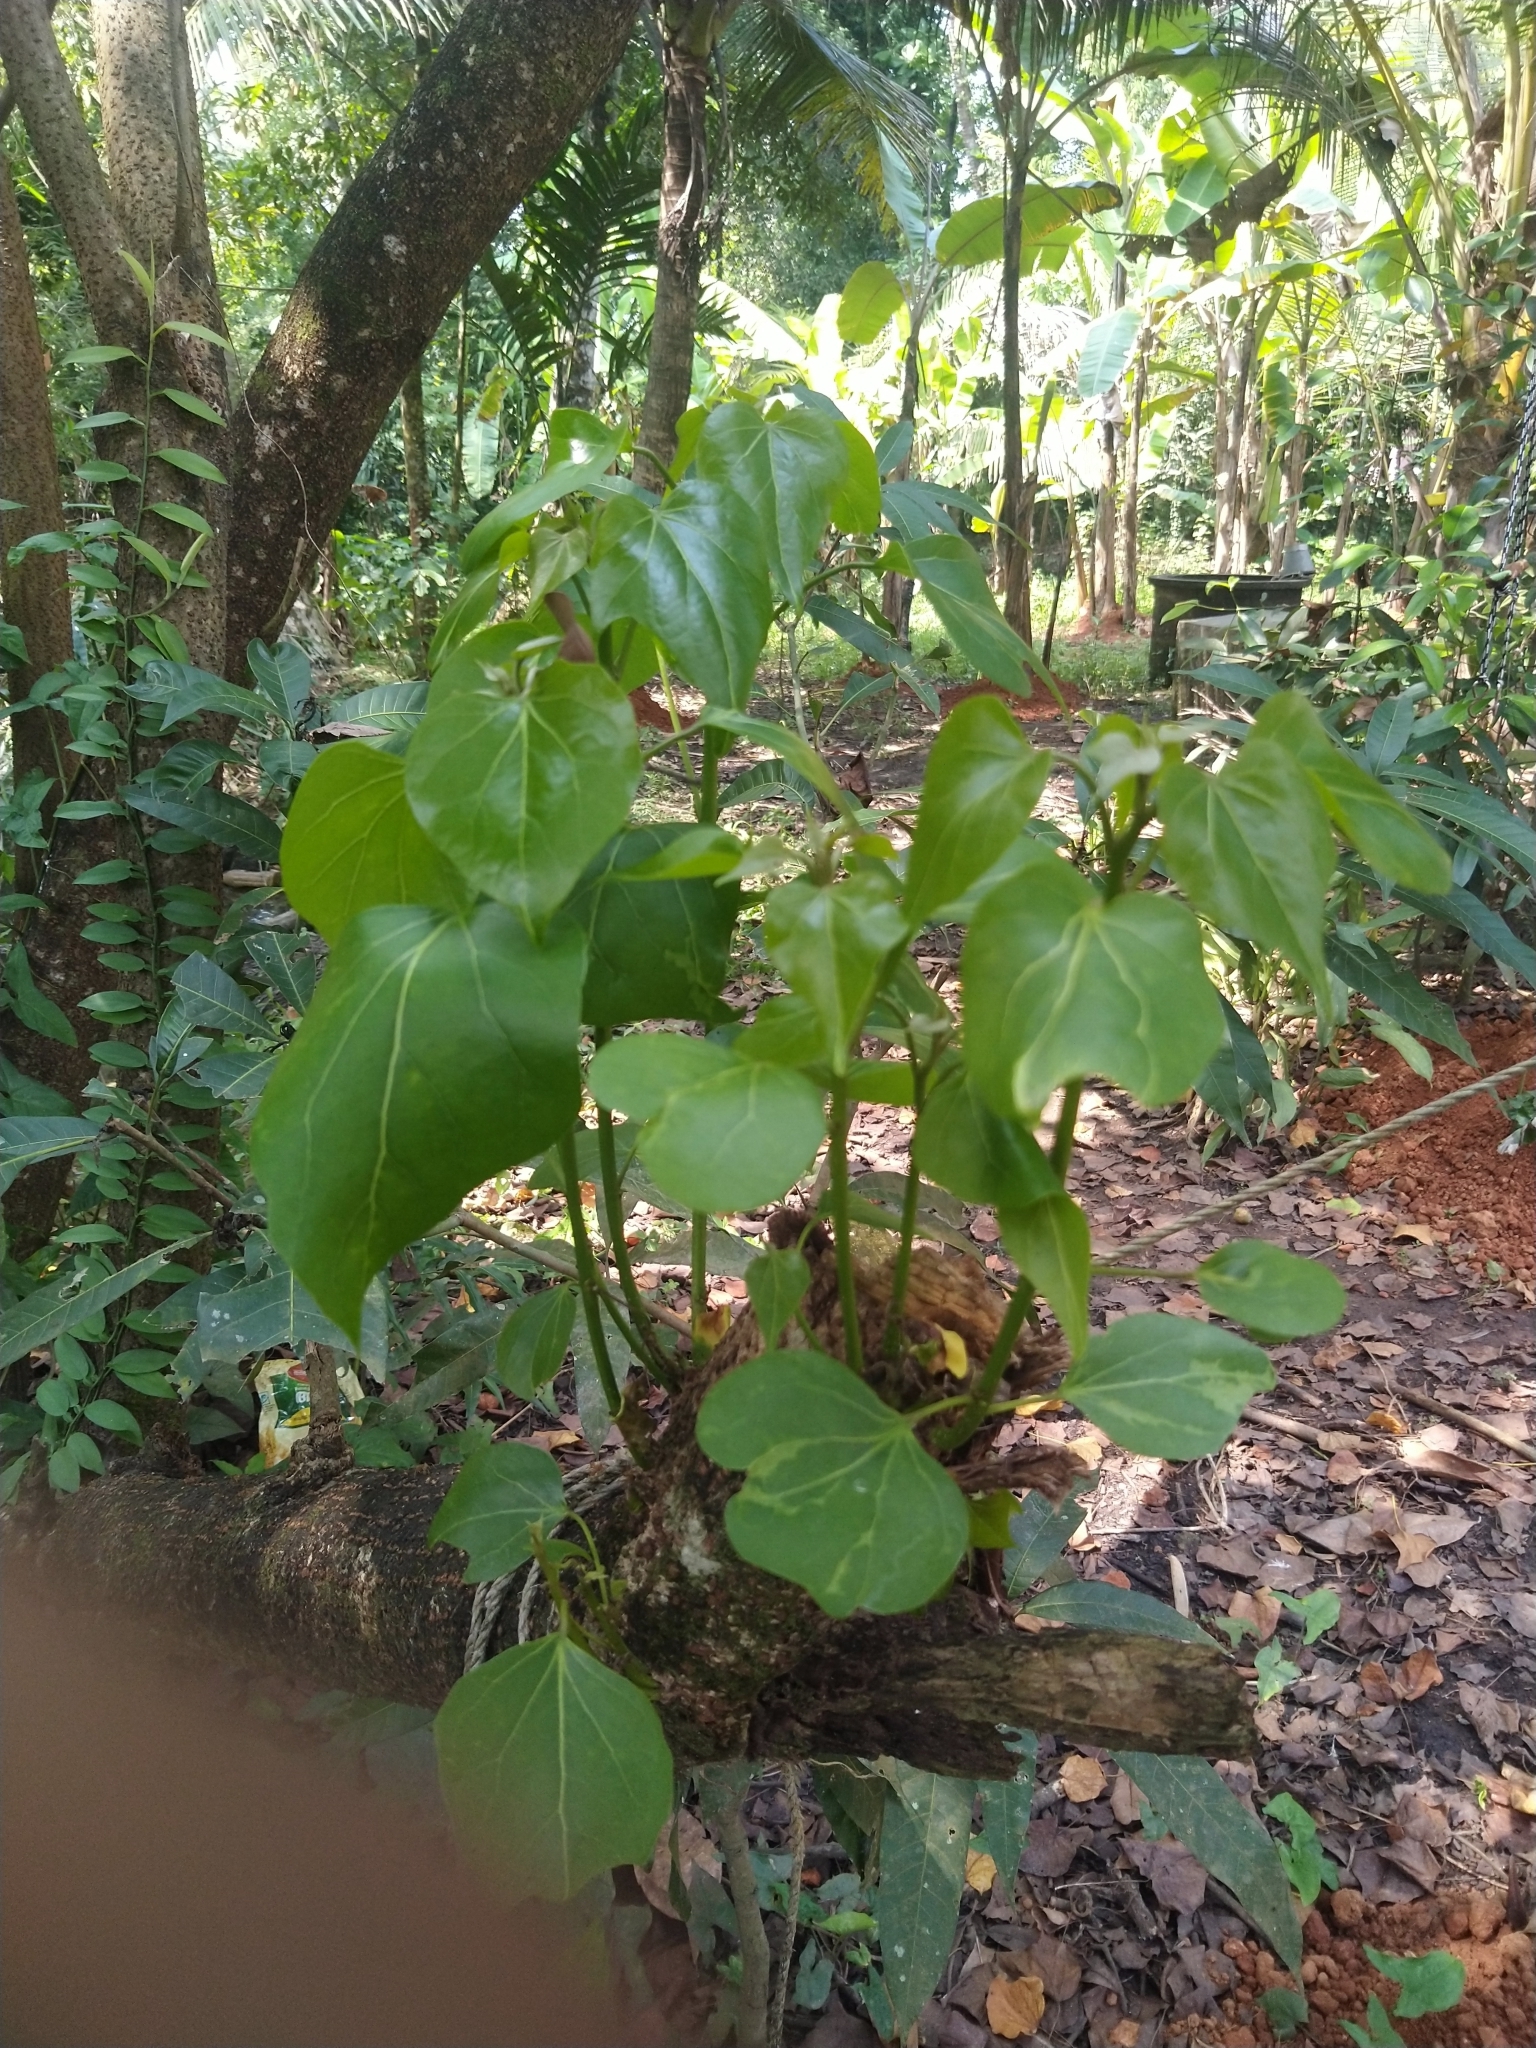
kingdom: Plantae
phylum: Tracheophyta
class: Magnoliopsida
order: Malvales
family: Malvaceae
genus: Thespesia
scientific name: Thespesia populnea
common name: Seaside mahoe
